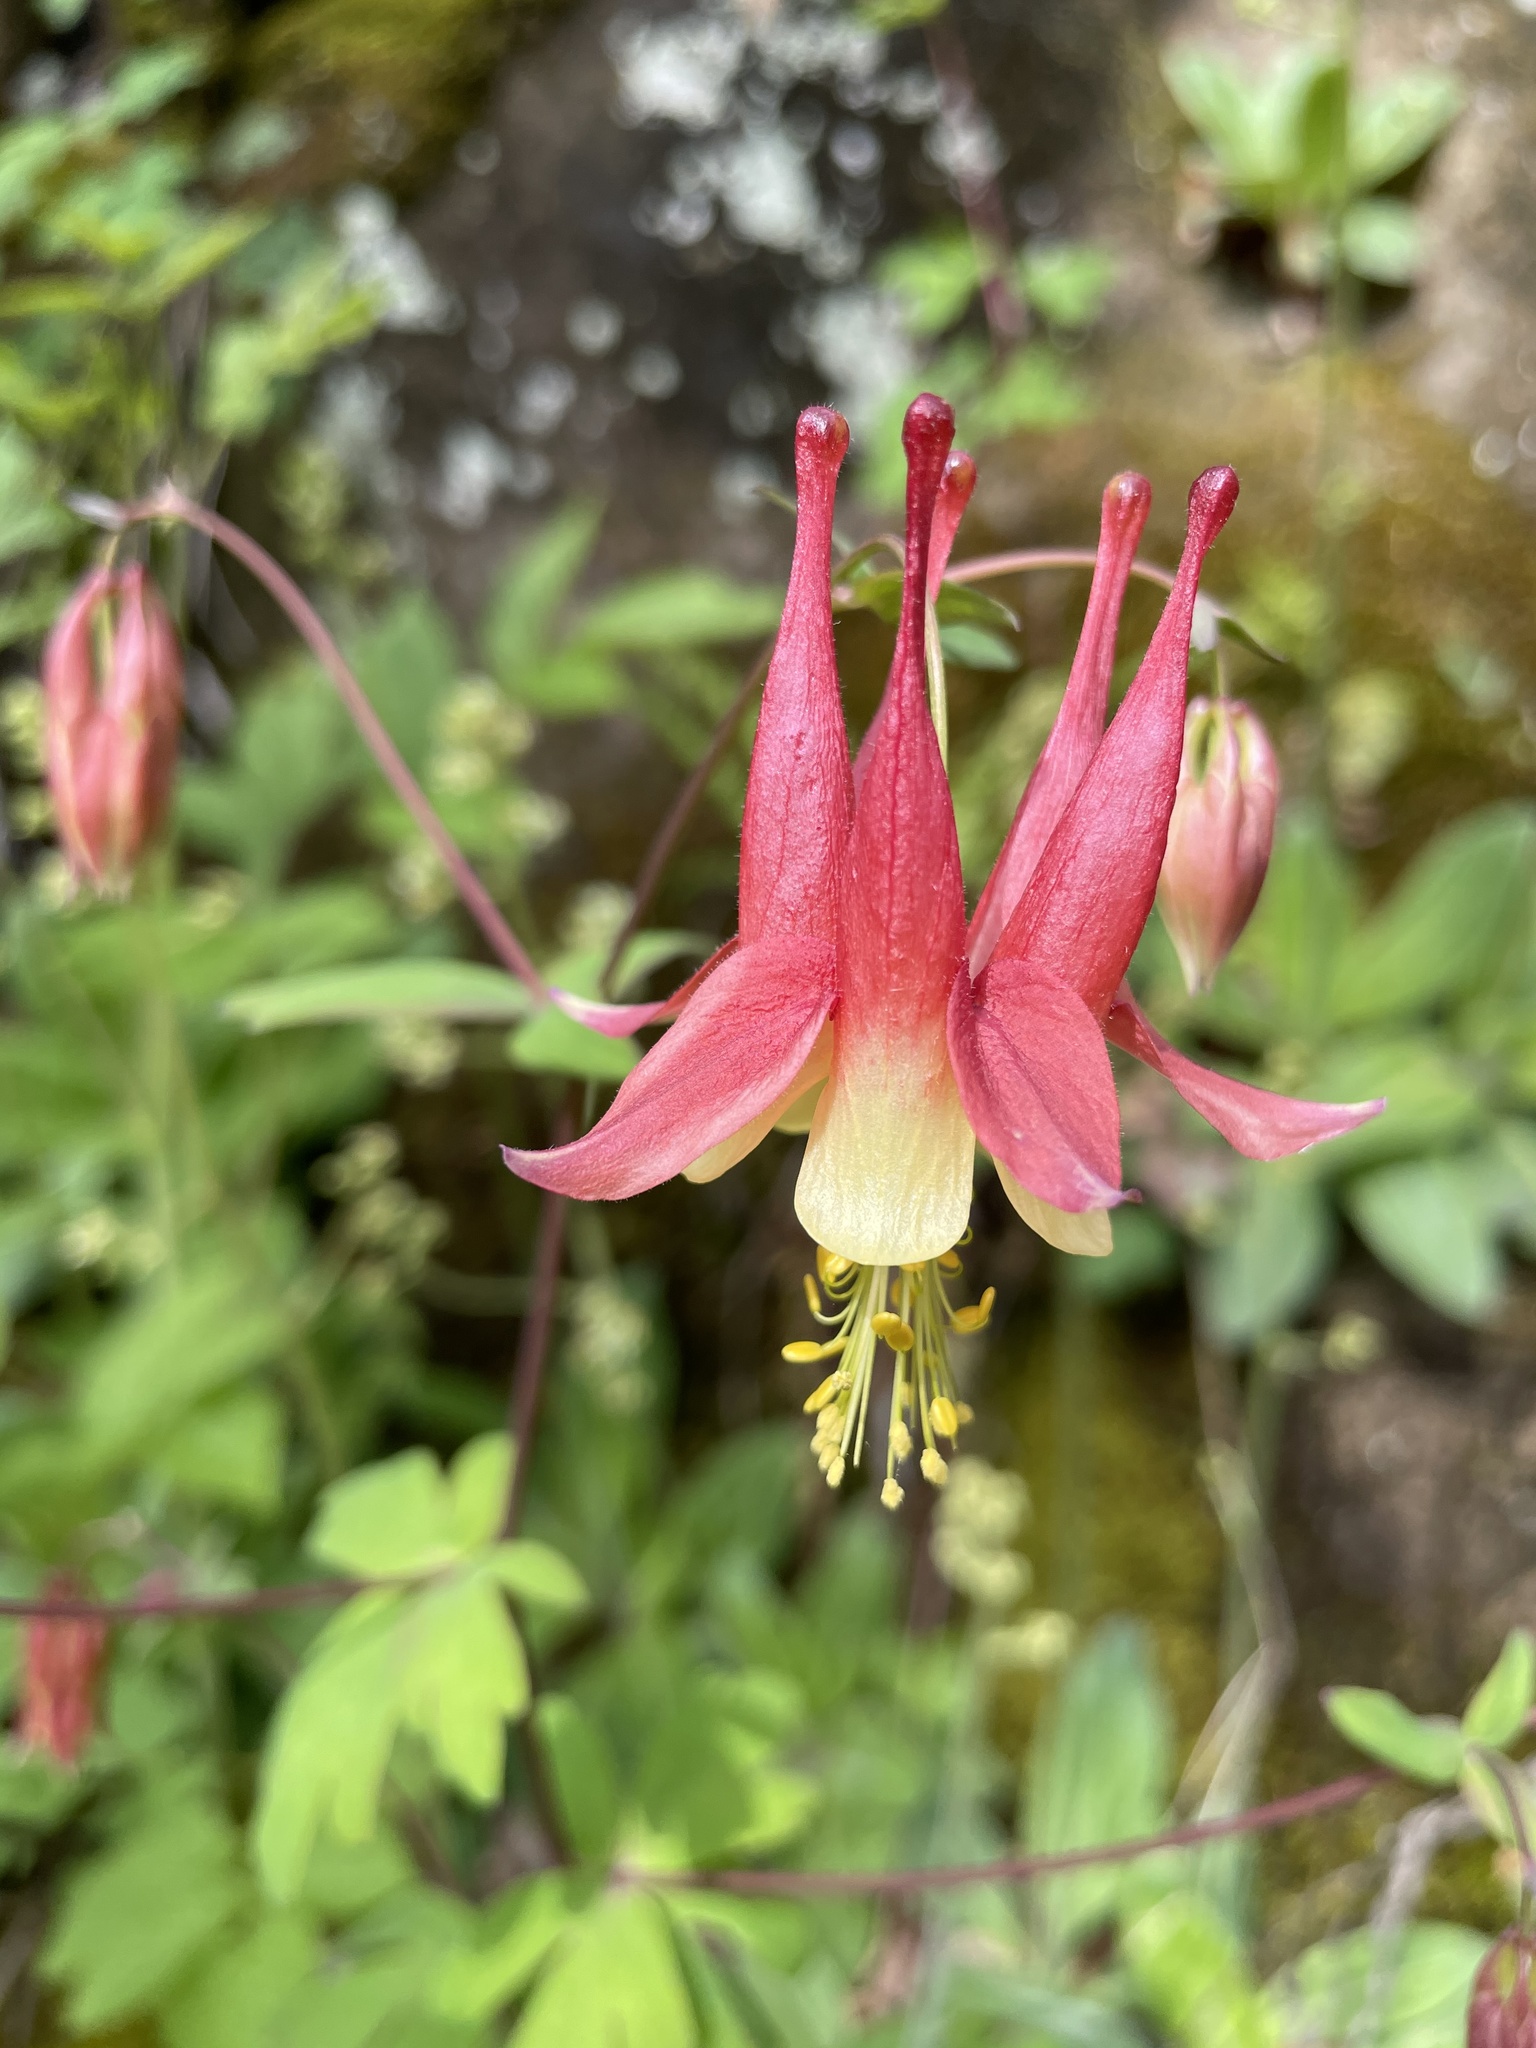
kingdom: Plantae
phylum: Tracheophyta
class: Magnoliopsida
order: Ranunculales
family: Ranunculaceae
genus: Aquilegia
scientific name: Aquilegia canadensis
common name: American columbine
